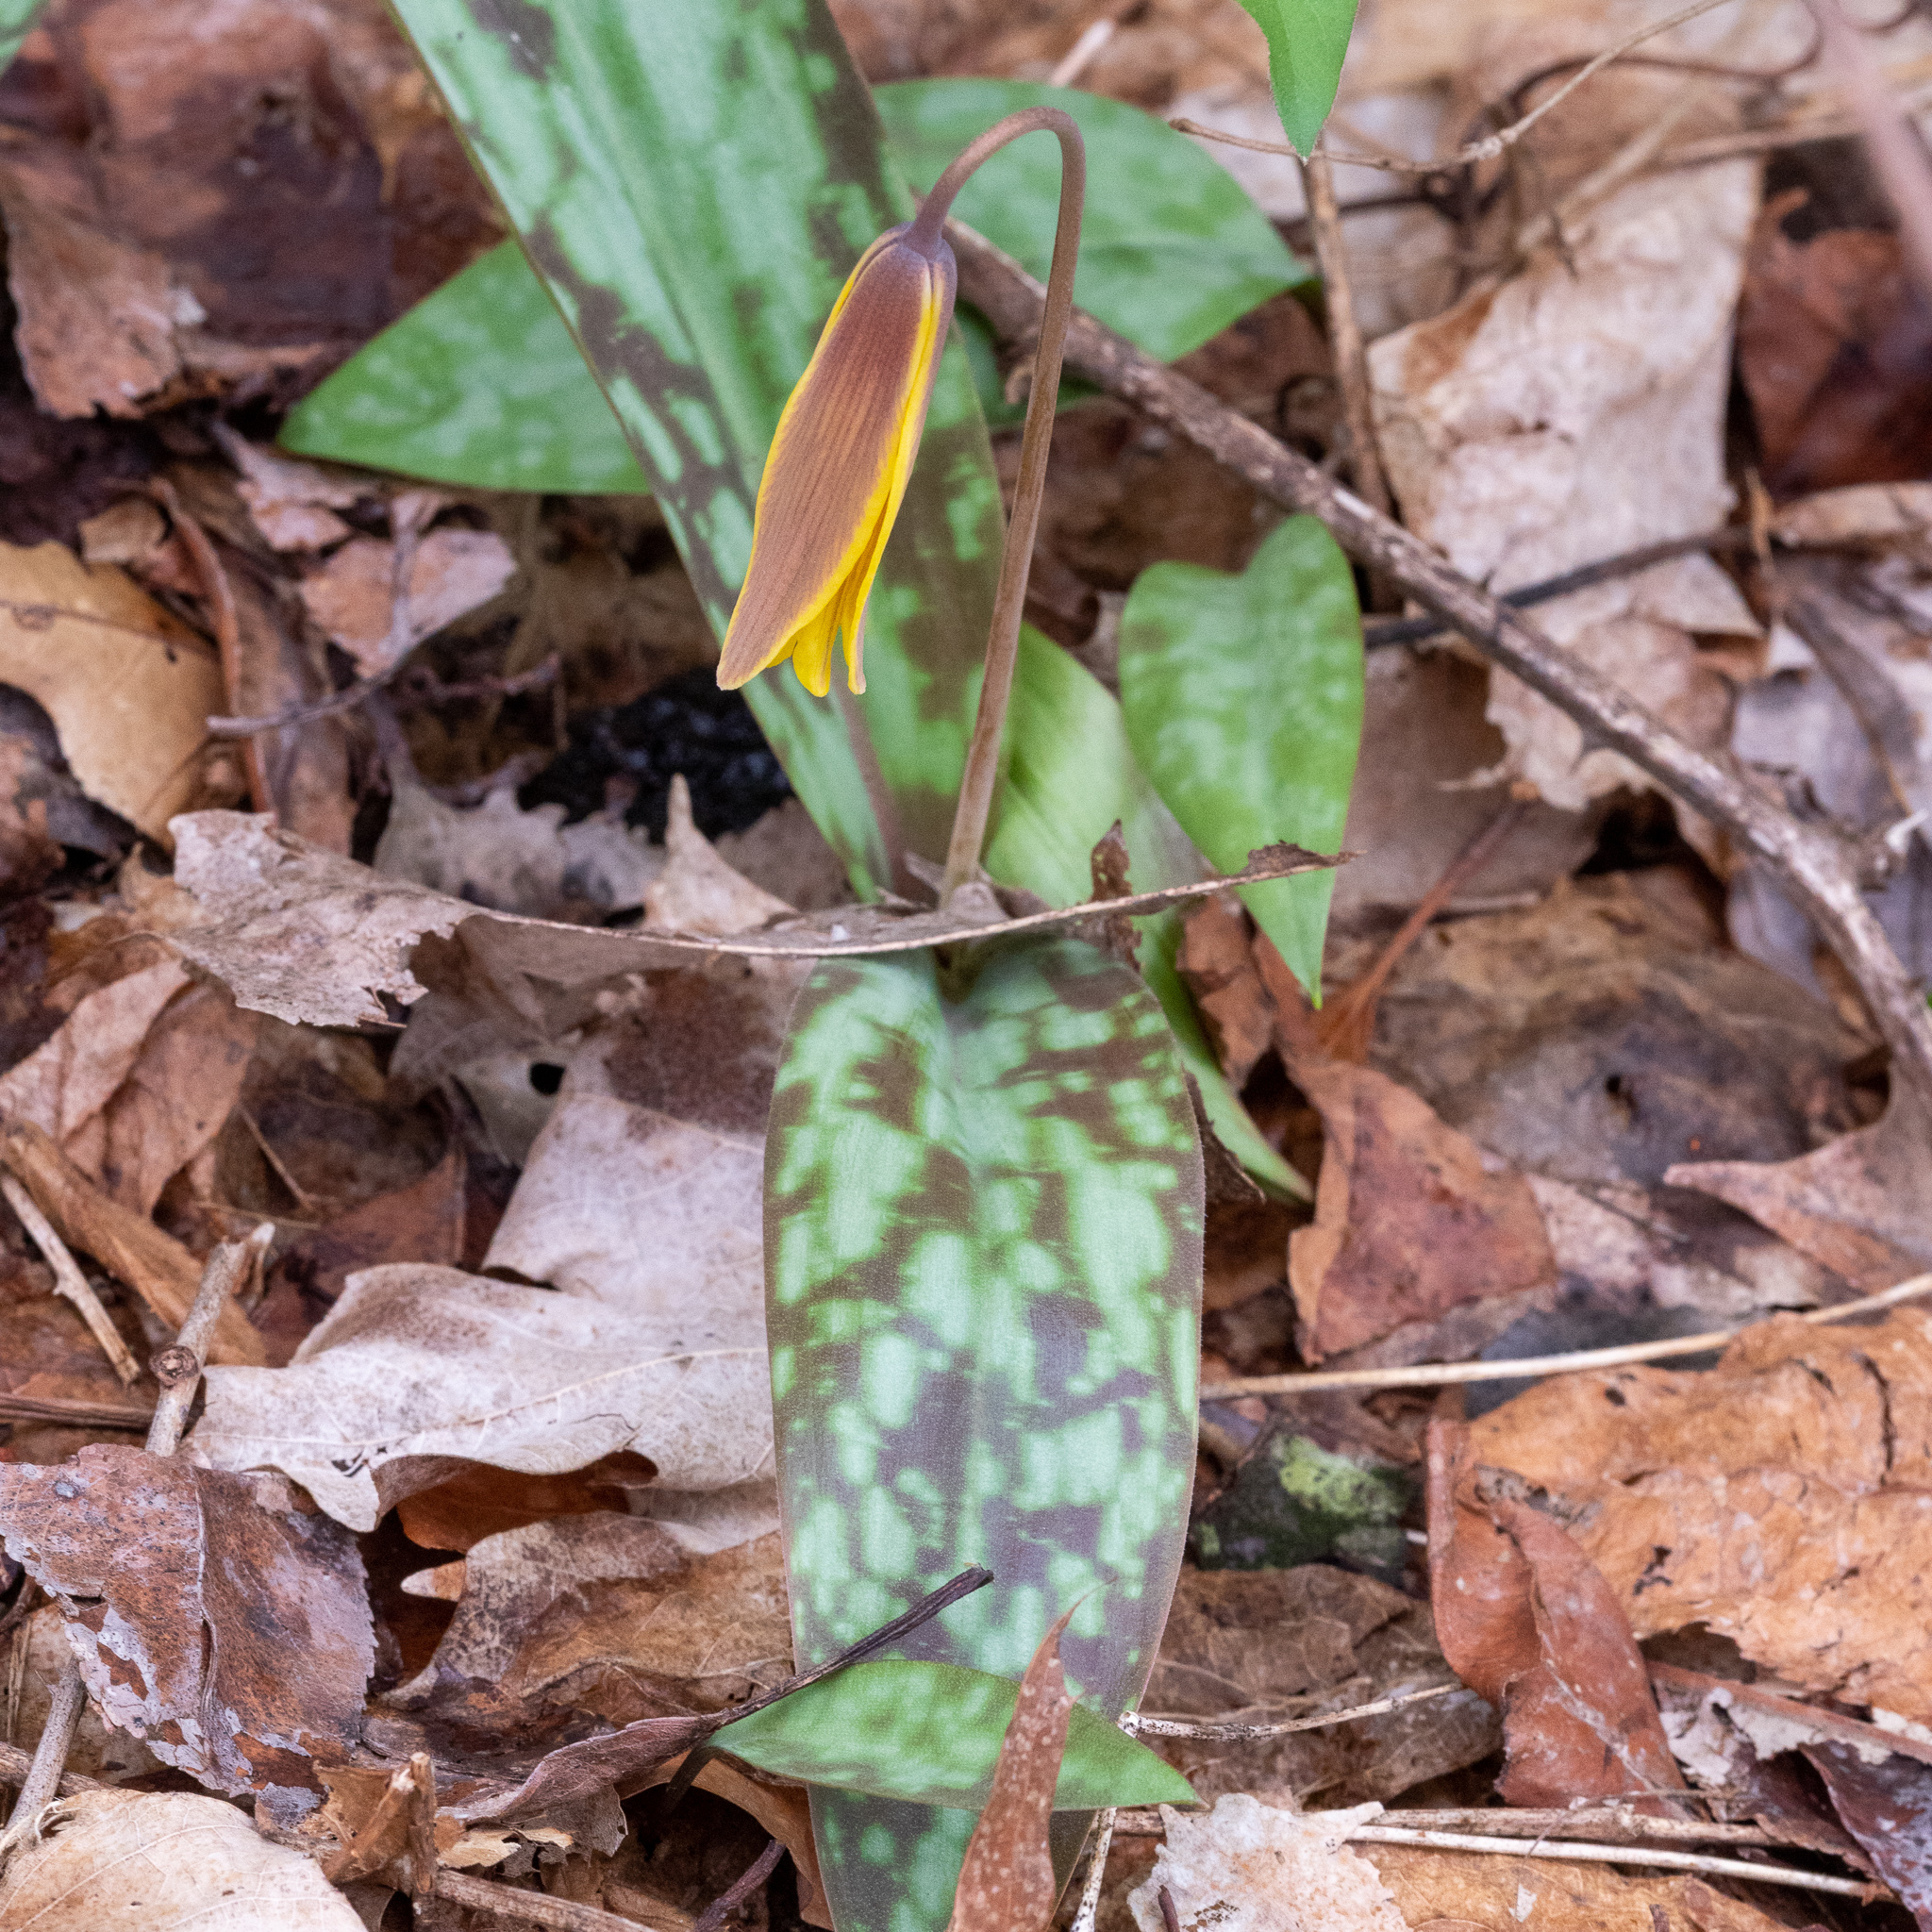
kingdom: Plantae
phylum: Tracheophyta
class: Liliopsida
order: Liliales
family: Liliaceae
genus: Erythronium
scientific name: Erythronium americanum
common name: Yellow adder's-tongue
